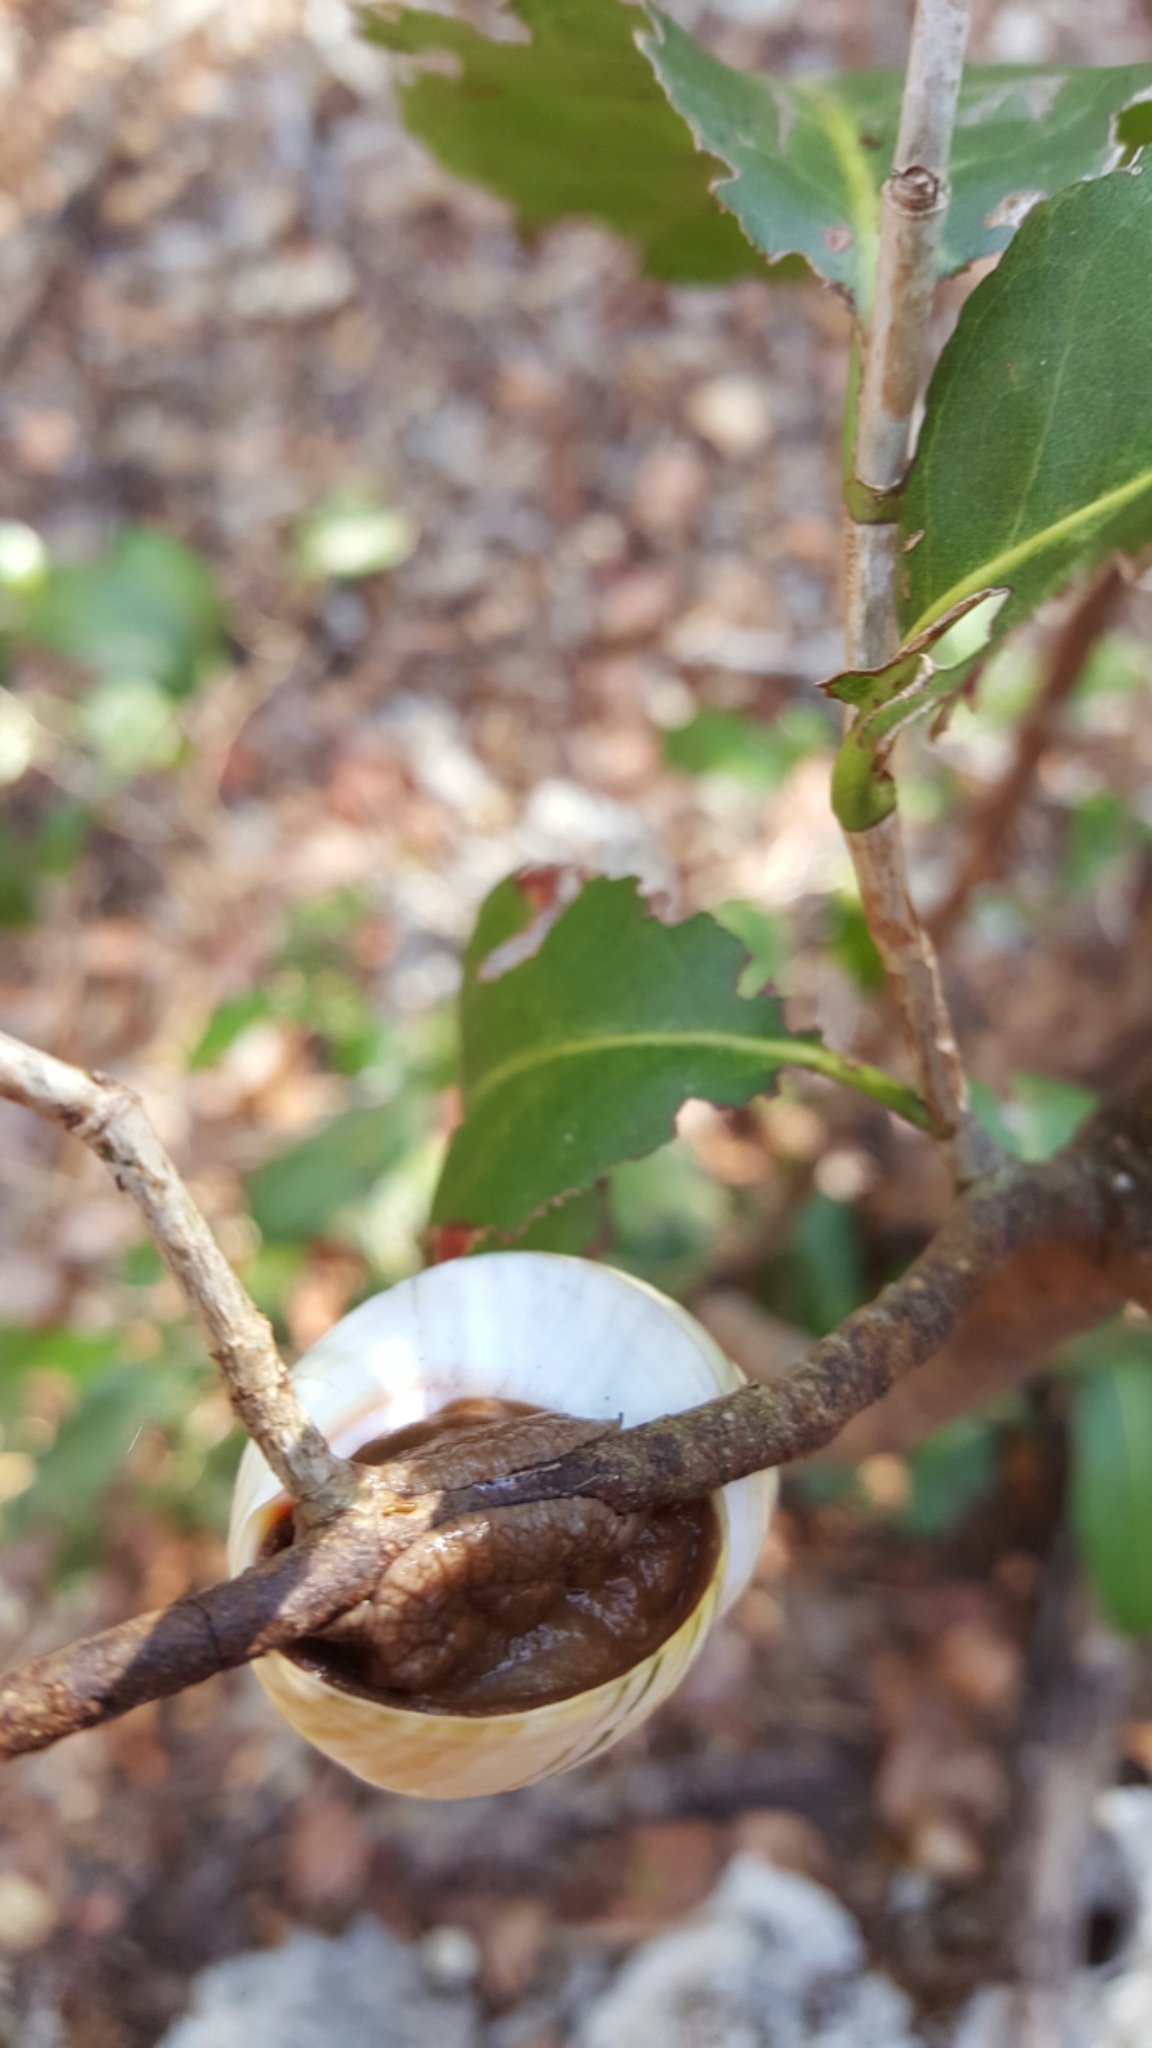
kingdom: Animalia
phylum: Mollusca
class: Gastropoda
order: Stylommatophora
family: Orthalicidae
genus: Liguus
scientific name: Liguus fasciatus
